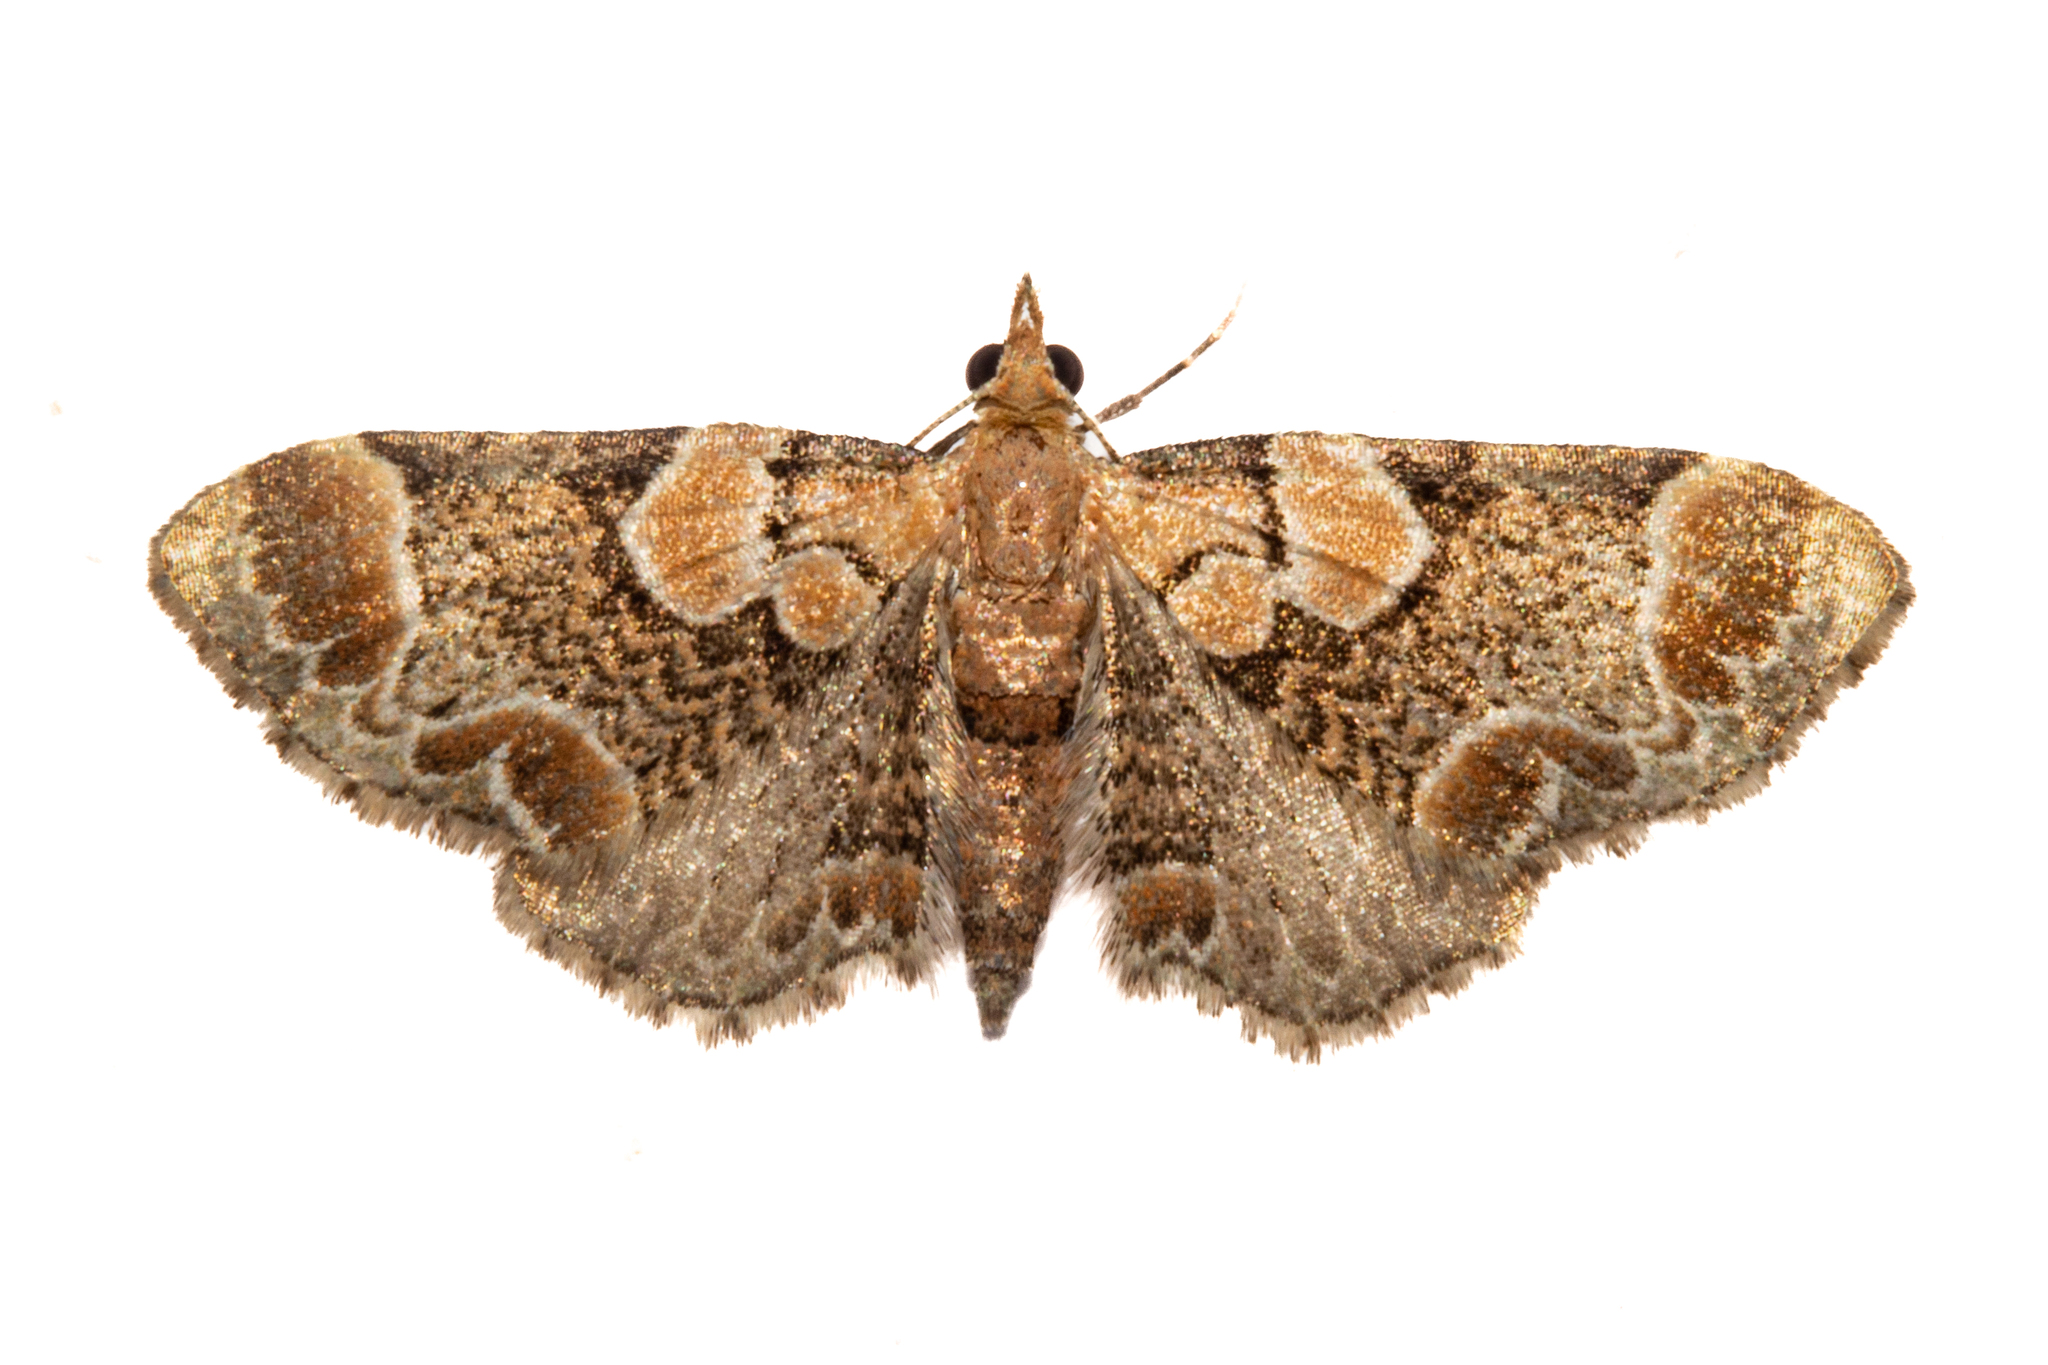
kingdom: Animalia
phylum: Arthropoda
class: Insecta
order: Lepidoptera
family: Geometridae
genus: Chloroclystis
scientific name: Chloroclystis
